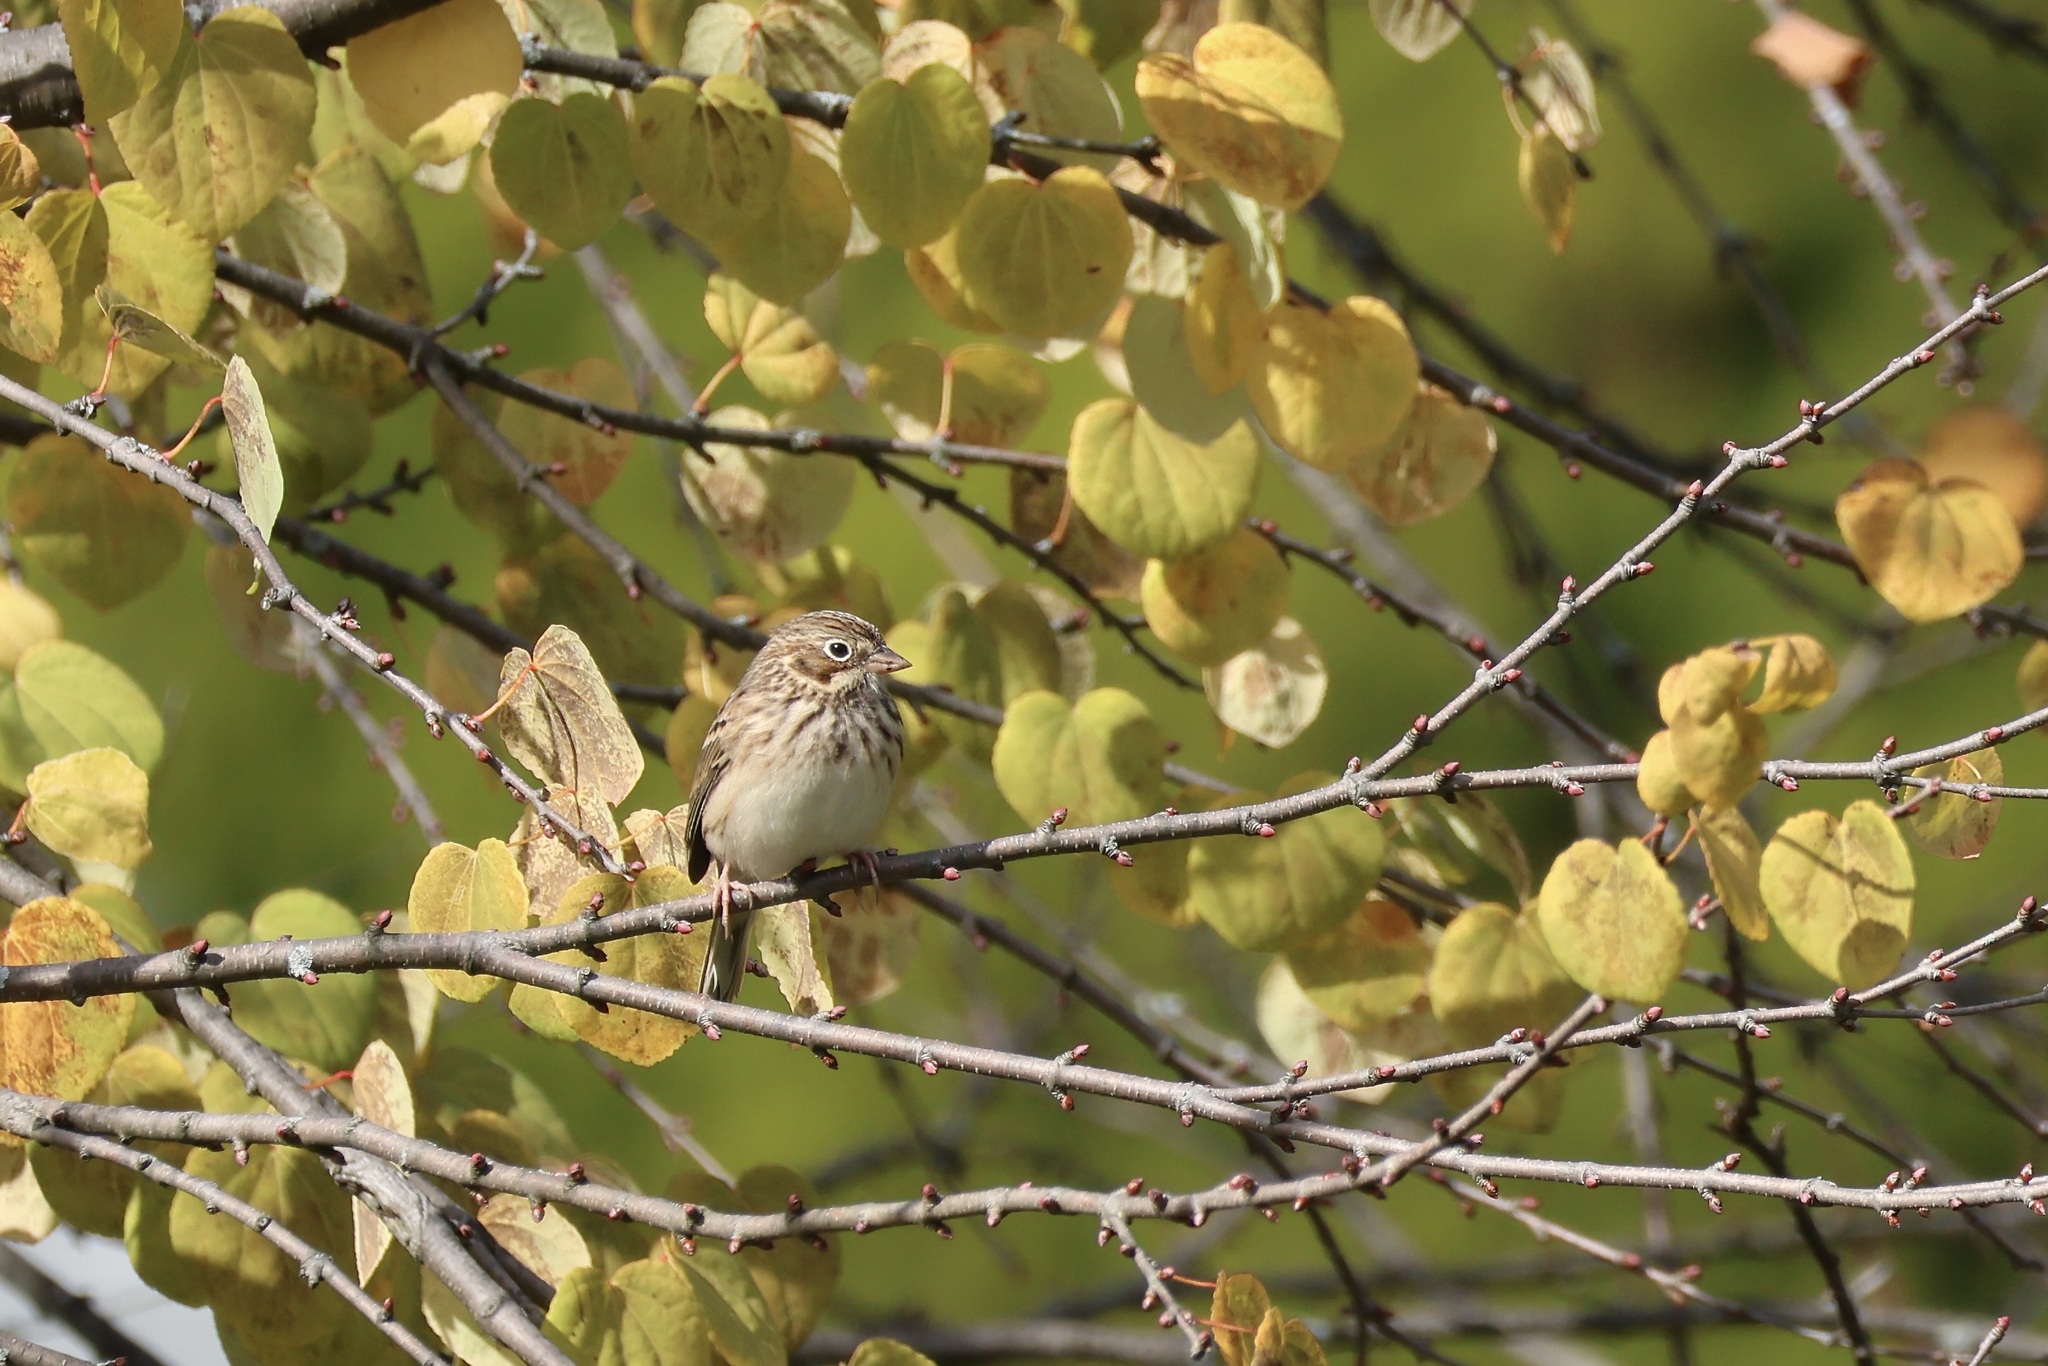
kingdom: Animalia
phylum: Chordata
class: Aves
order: Passeriformes
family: Passerellidae
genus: Pooecetes
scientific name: Pooecetes gramineus
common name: Vesper sparrow
